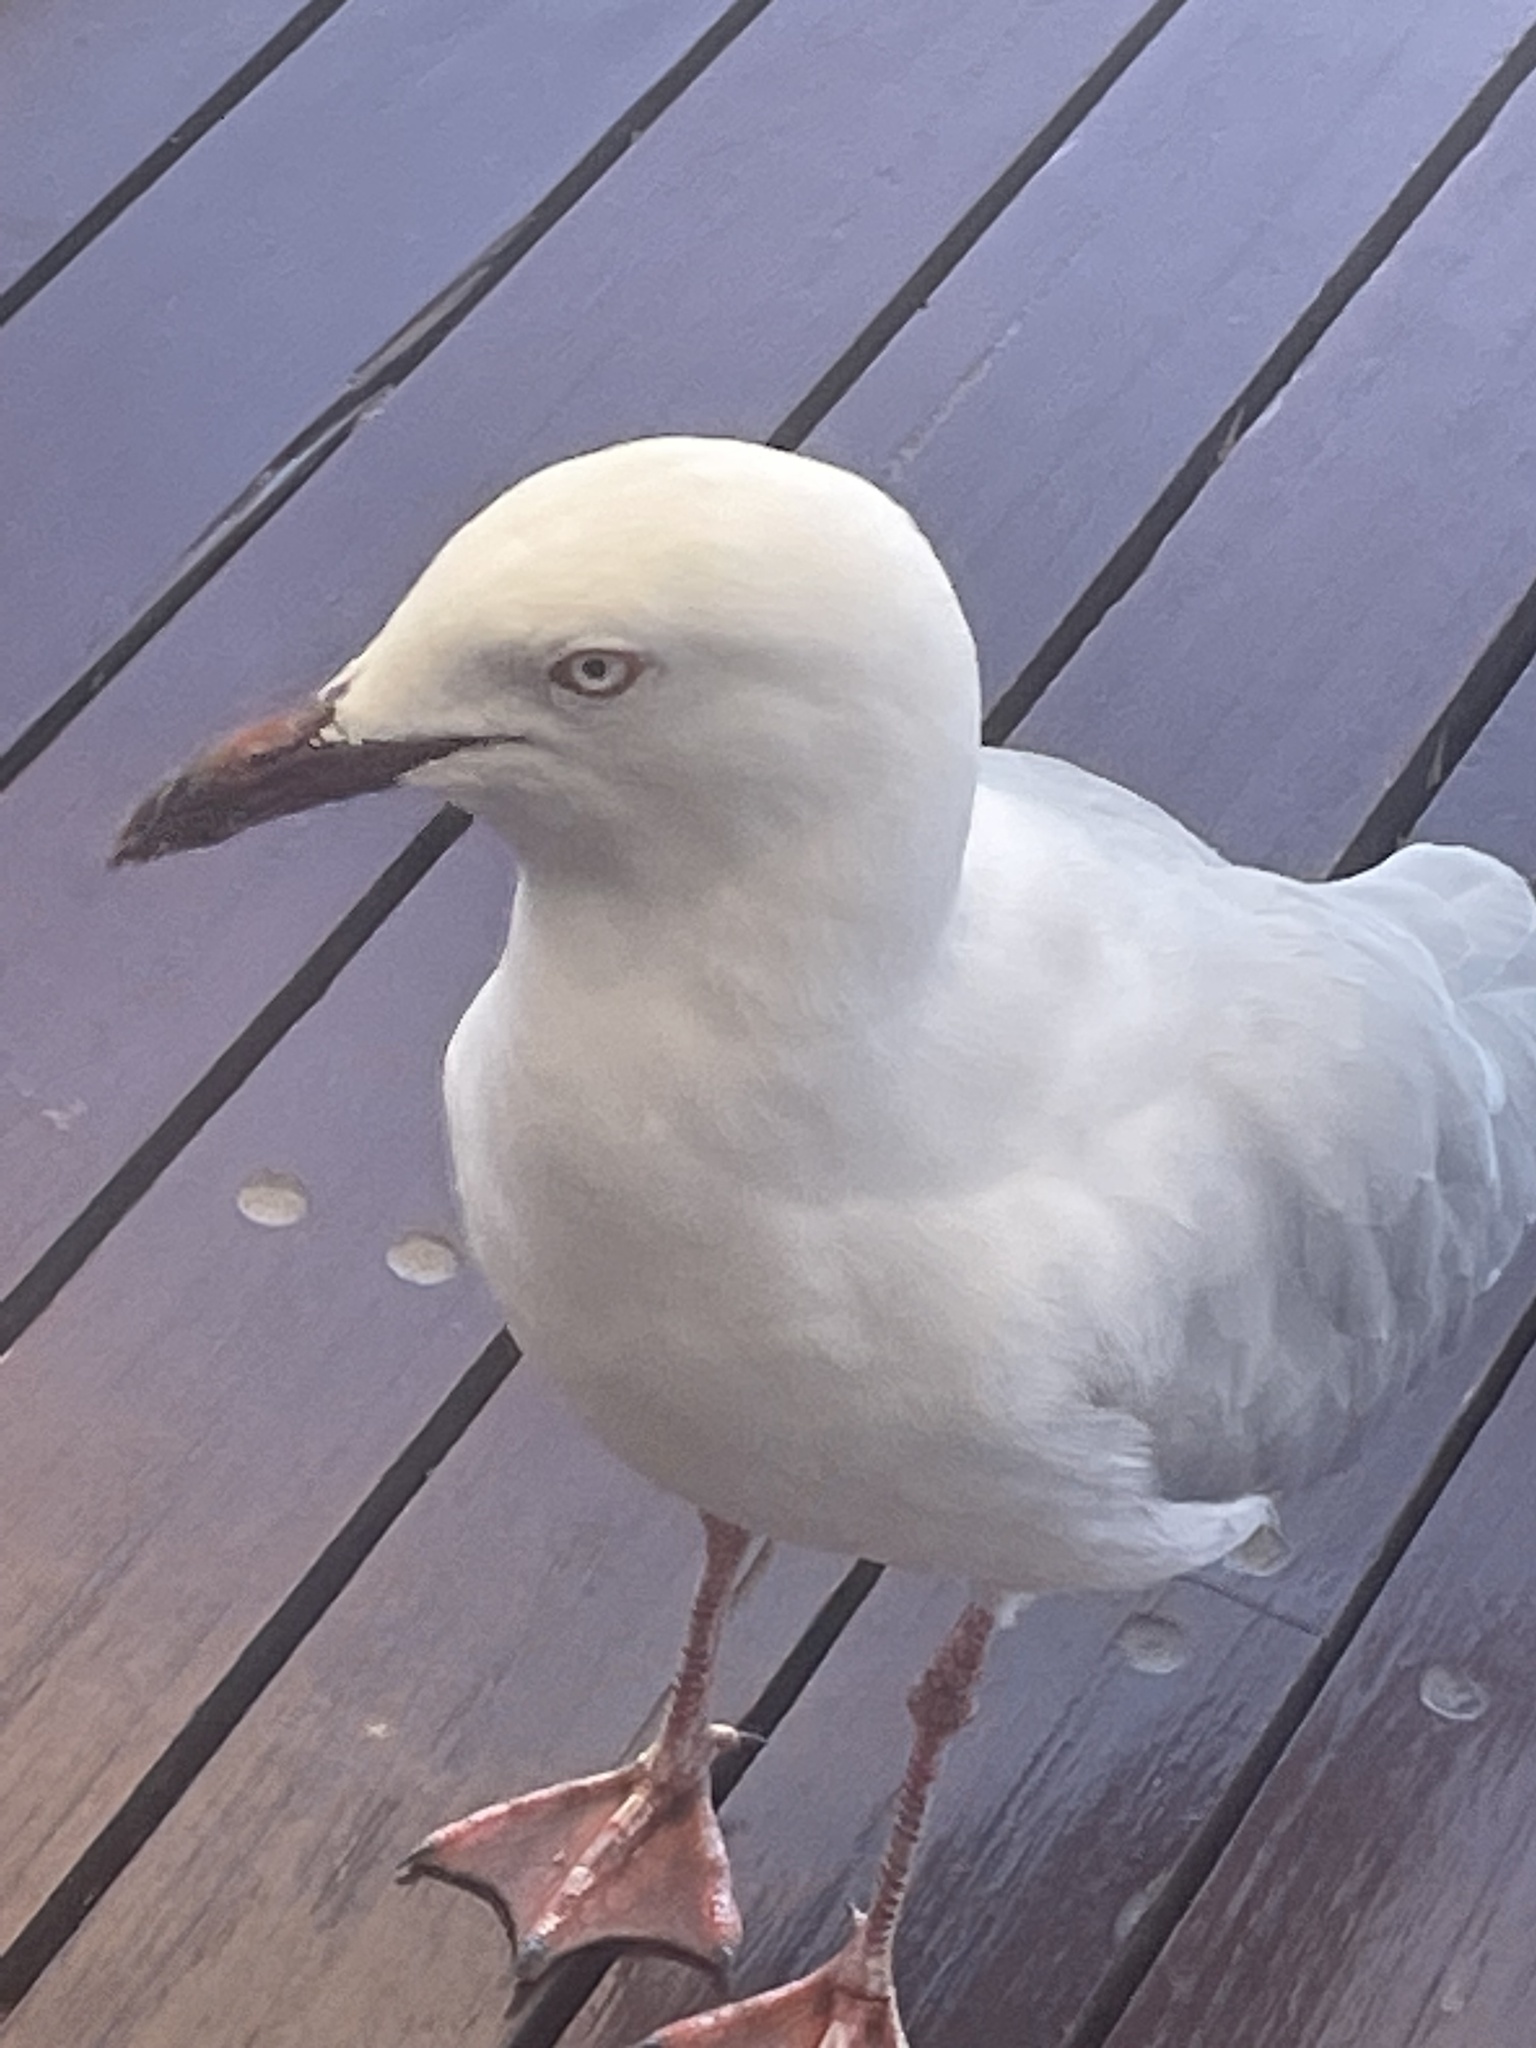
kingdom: Animalia
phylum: Chordata
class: Aves
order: Charadriiformes
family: Laridae
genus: Chroicocephalus
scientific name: Chroicocephalus novaehollandiae
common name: Silver gull
